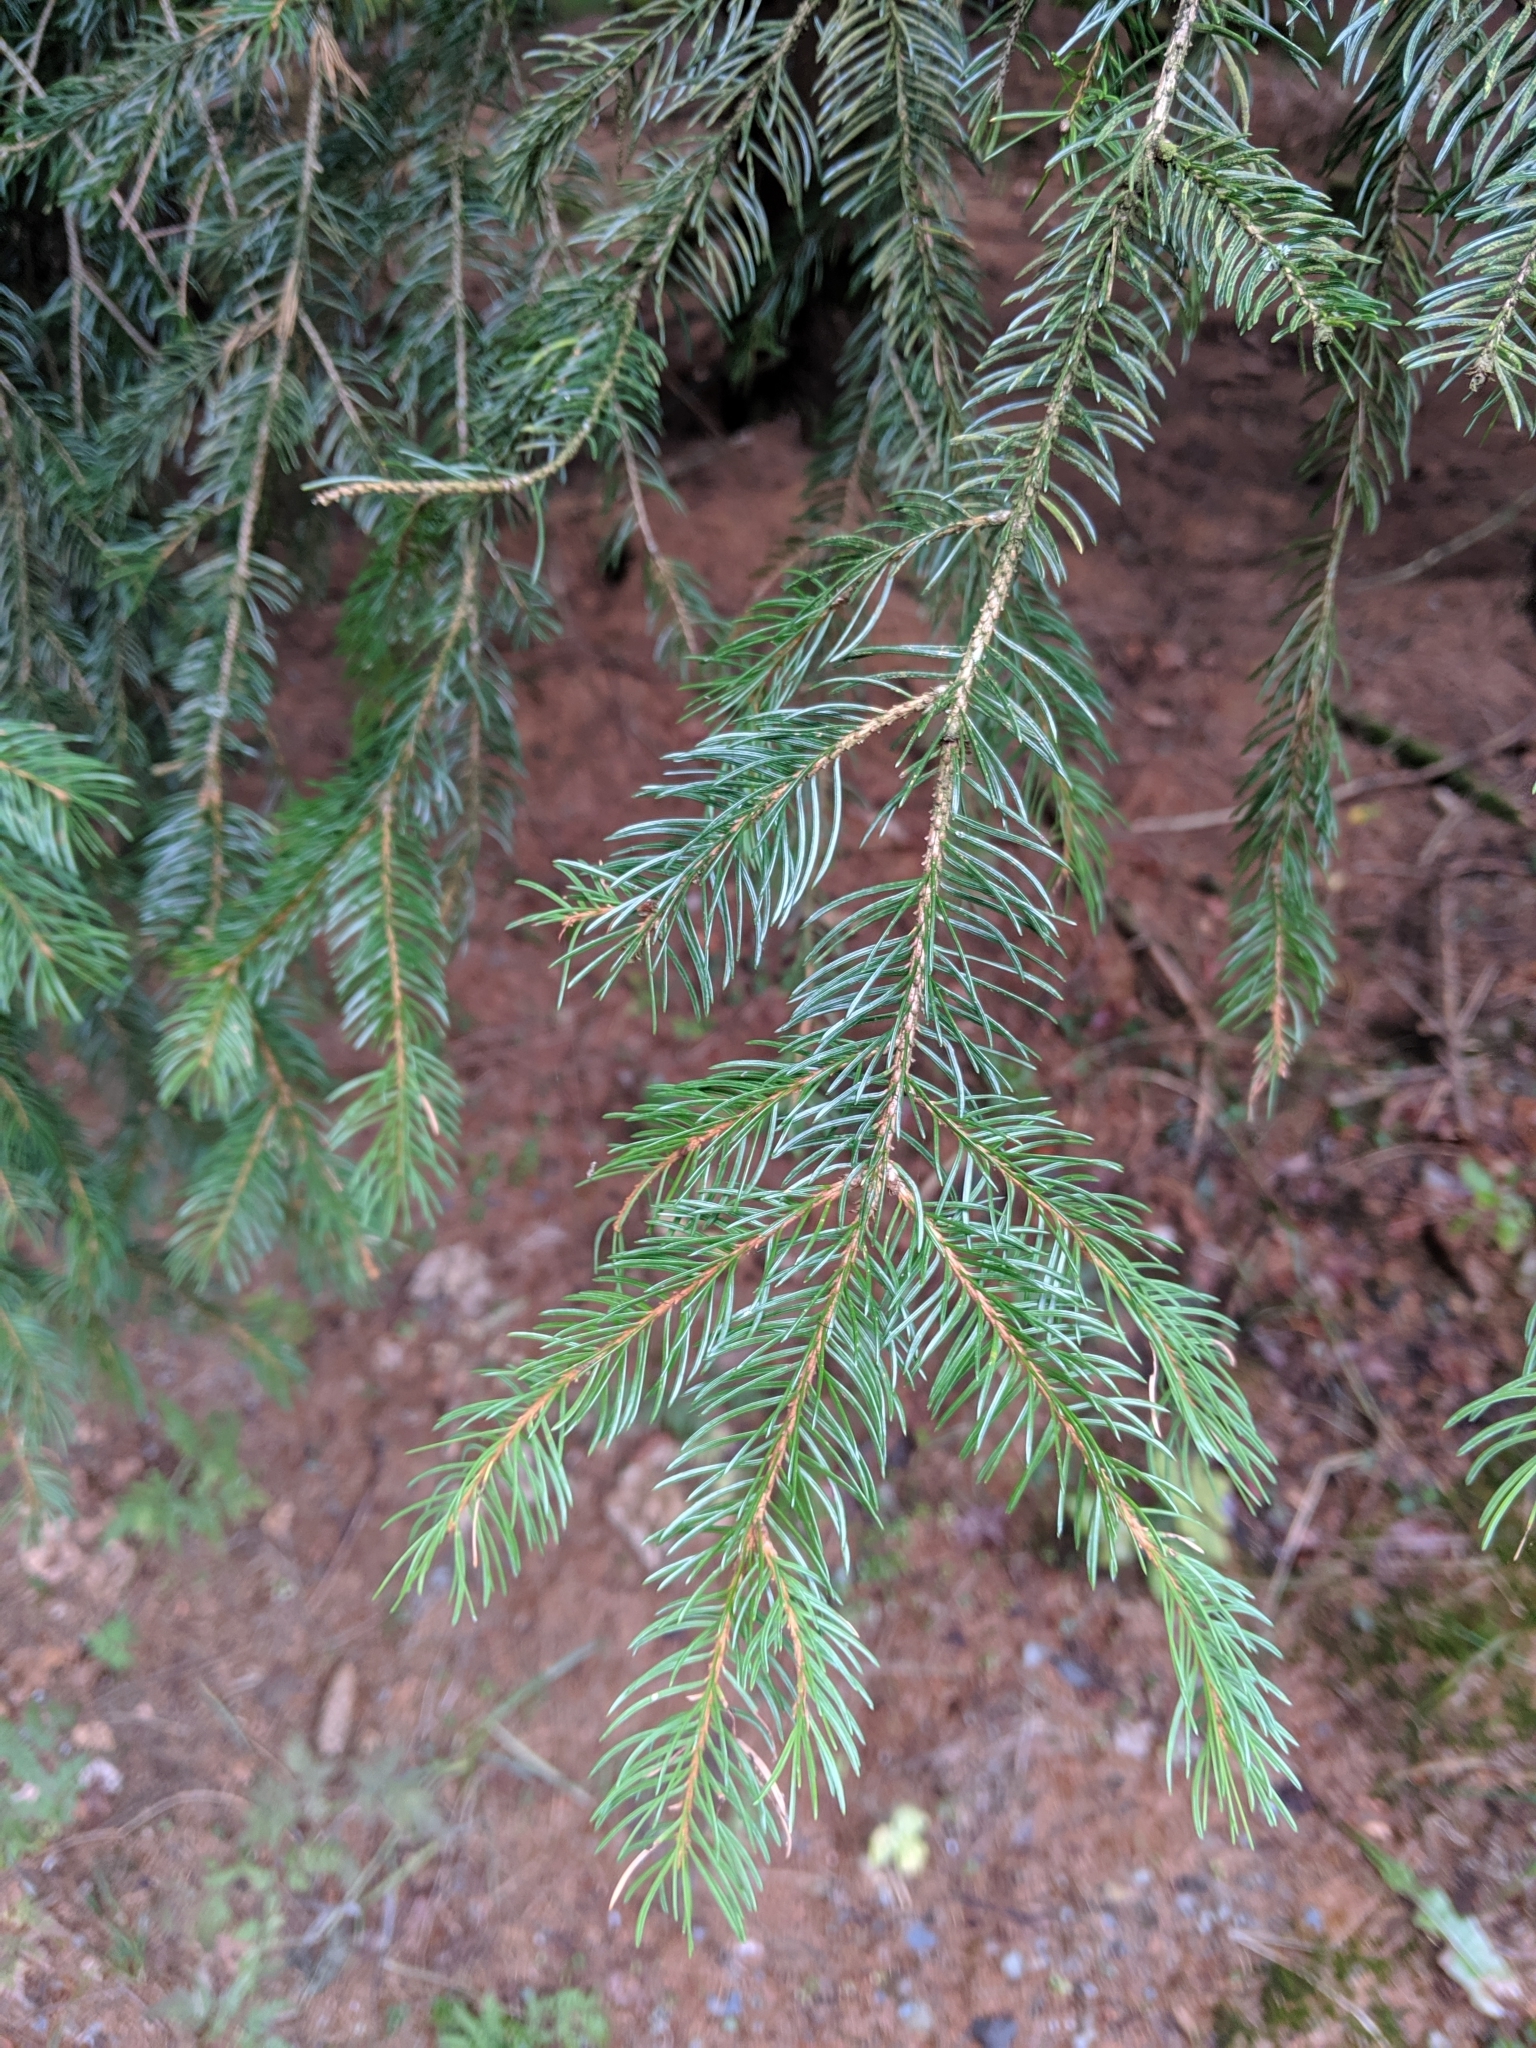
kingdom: Plantae
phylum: Tracheophyta
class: Pinopsida
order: Pinales
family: Pinaceae
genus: Picea
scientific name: Picea abies
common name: Norway spruce
